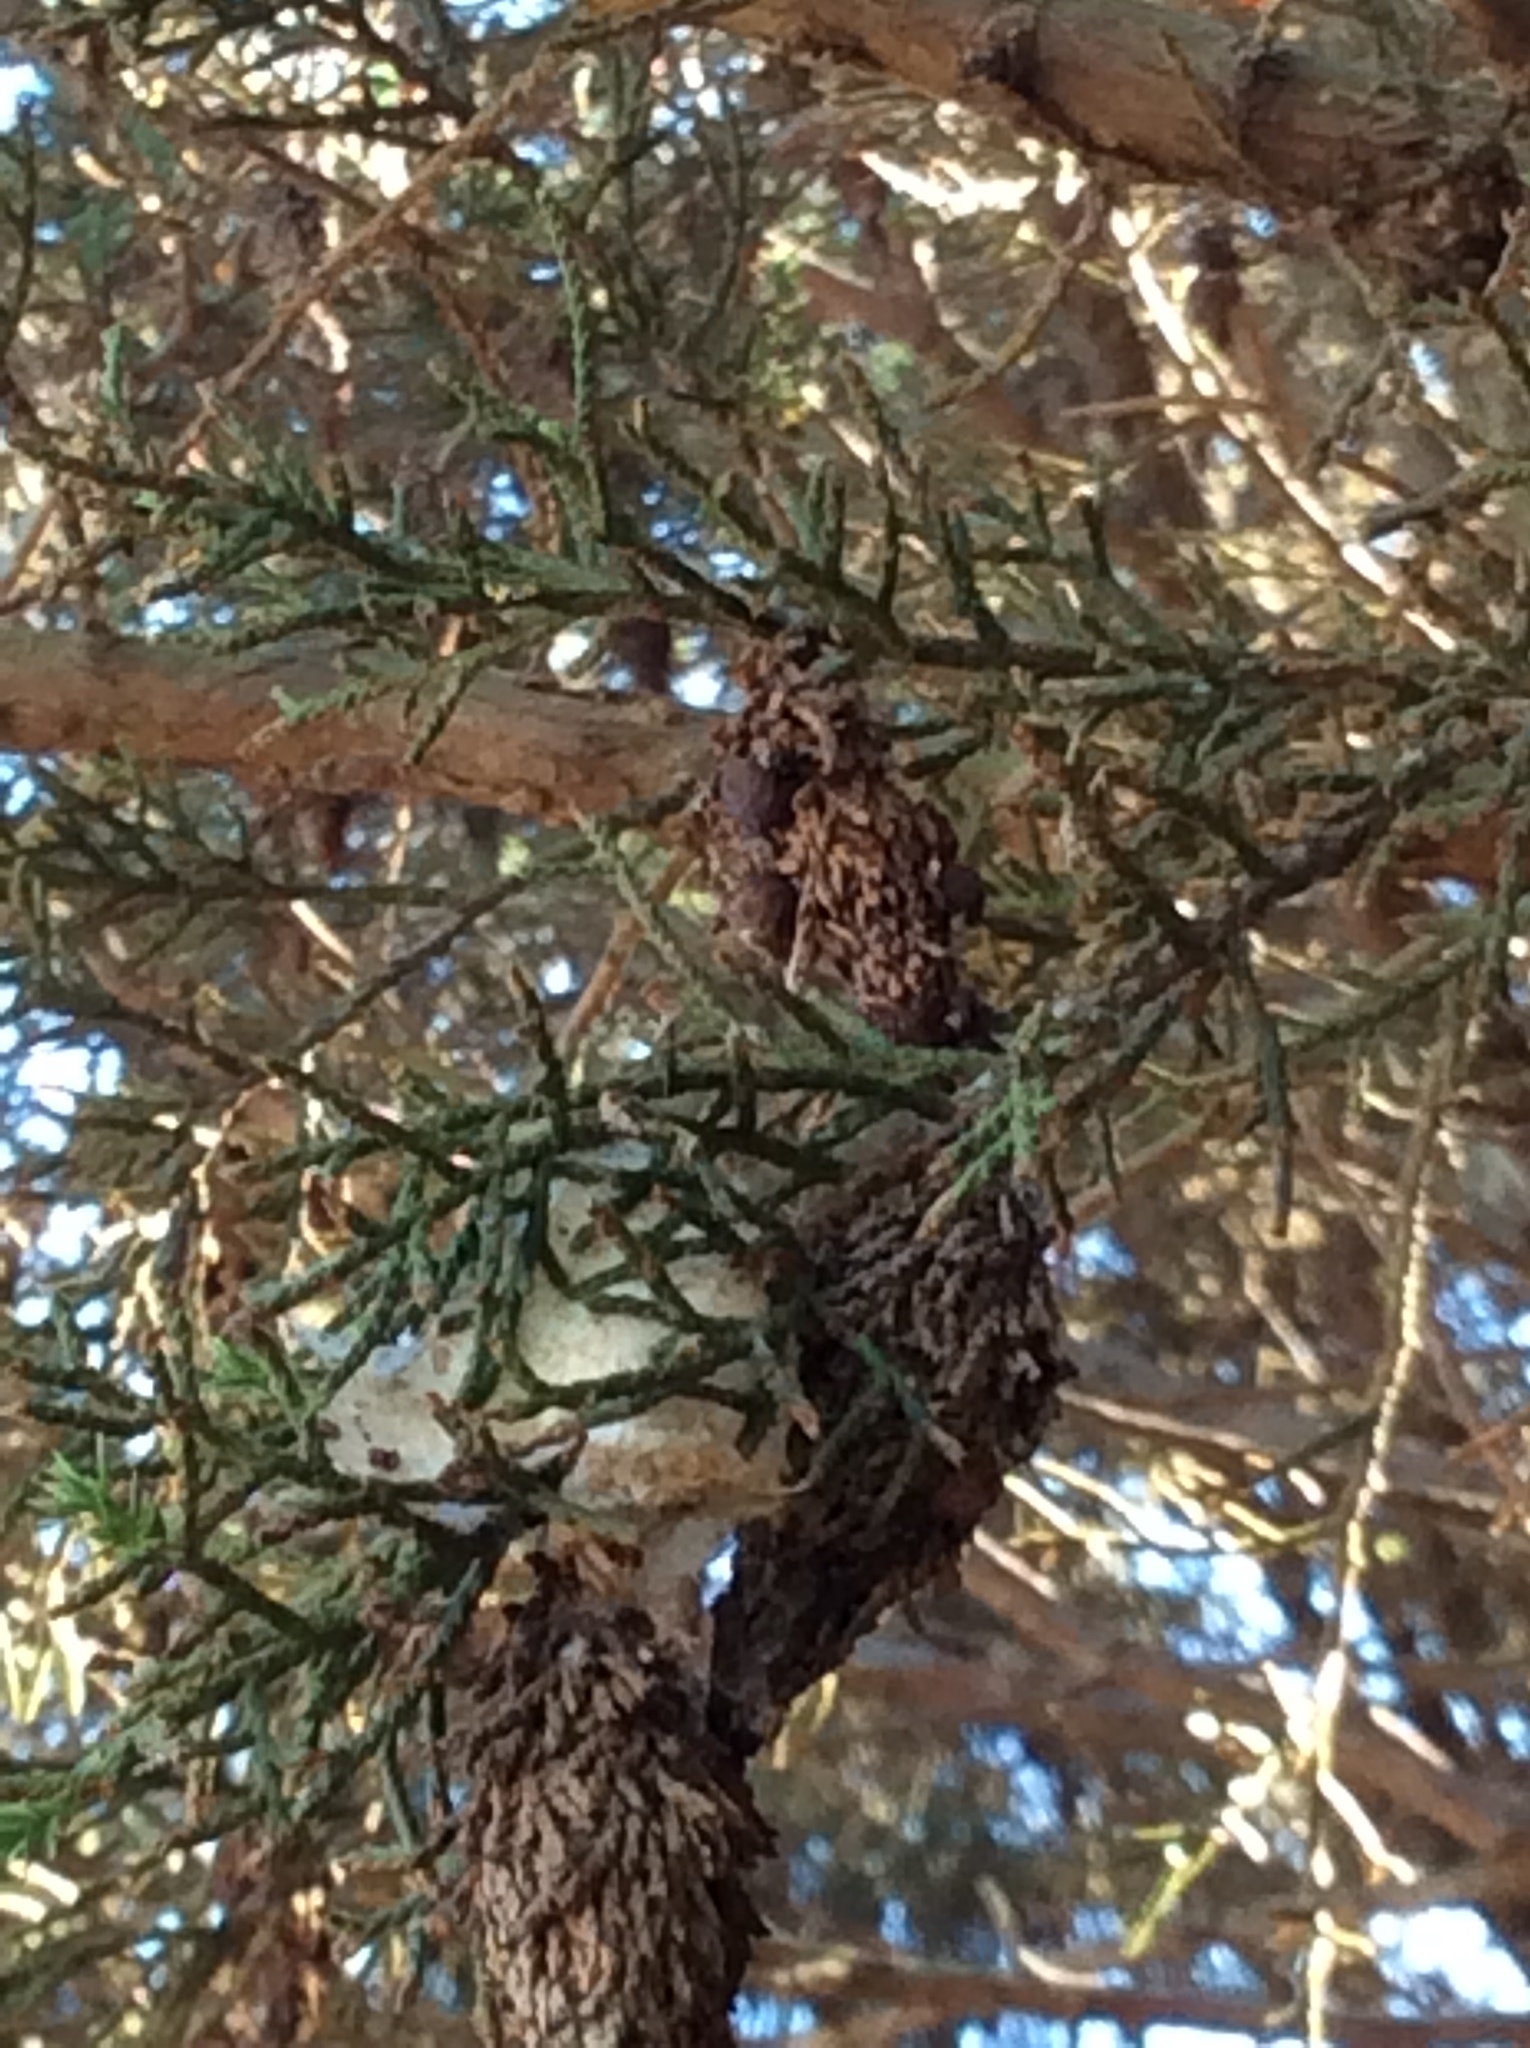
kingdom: Animalia
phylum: Arthropoda
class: Insecta
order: Lepidoptera
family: Psychidae
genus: Thyridopteryx
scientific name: Thyridopteryx ephemeraeformis
